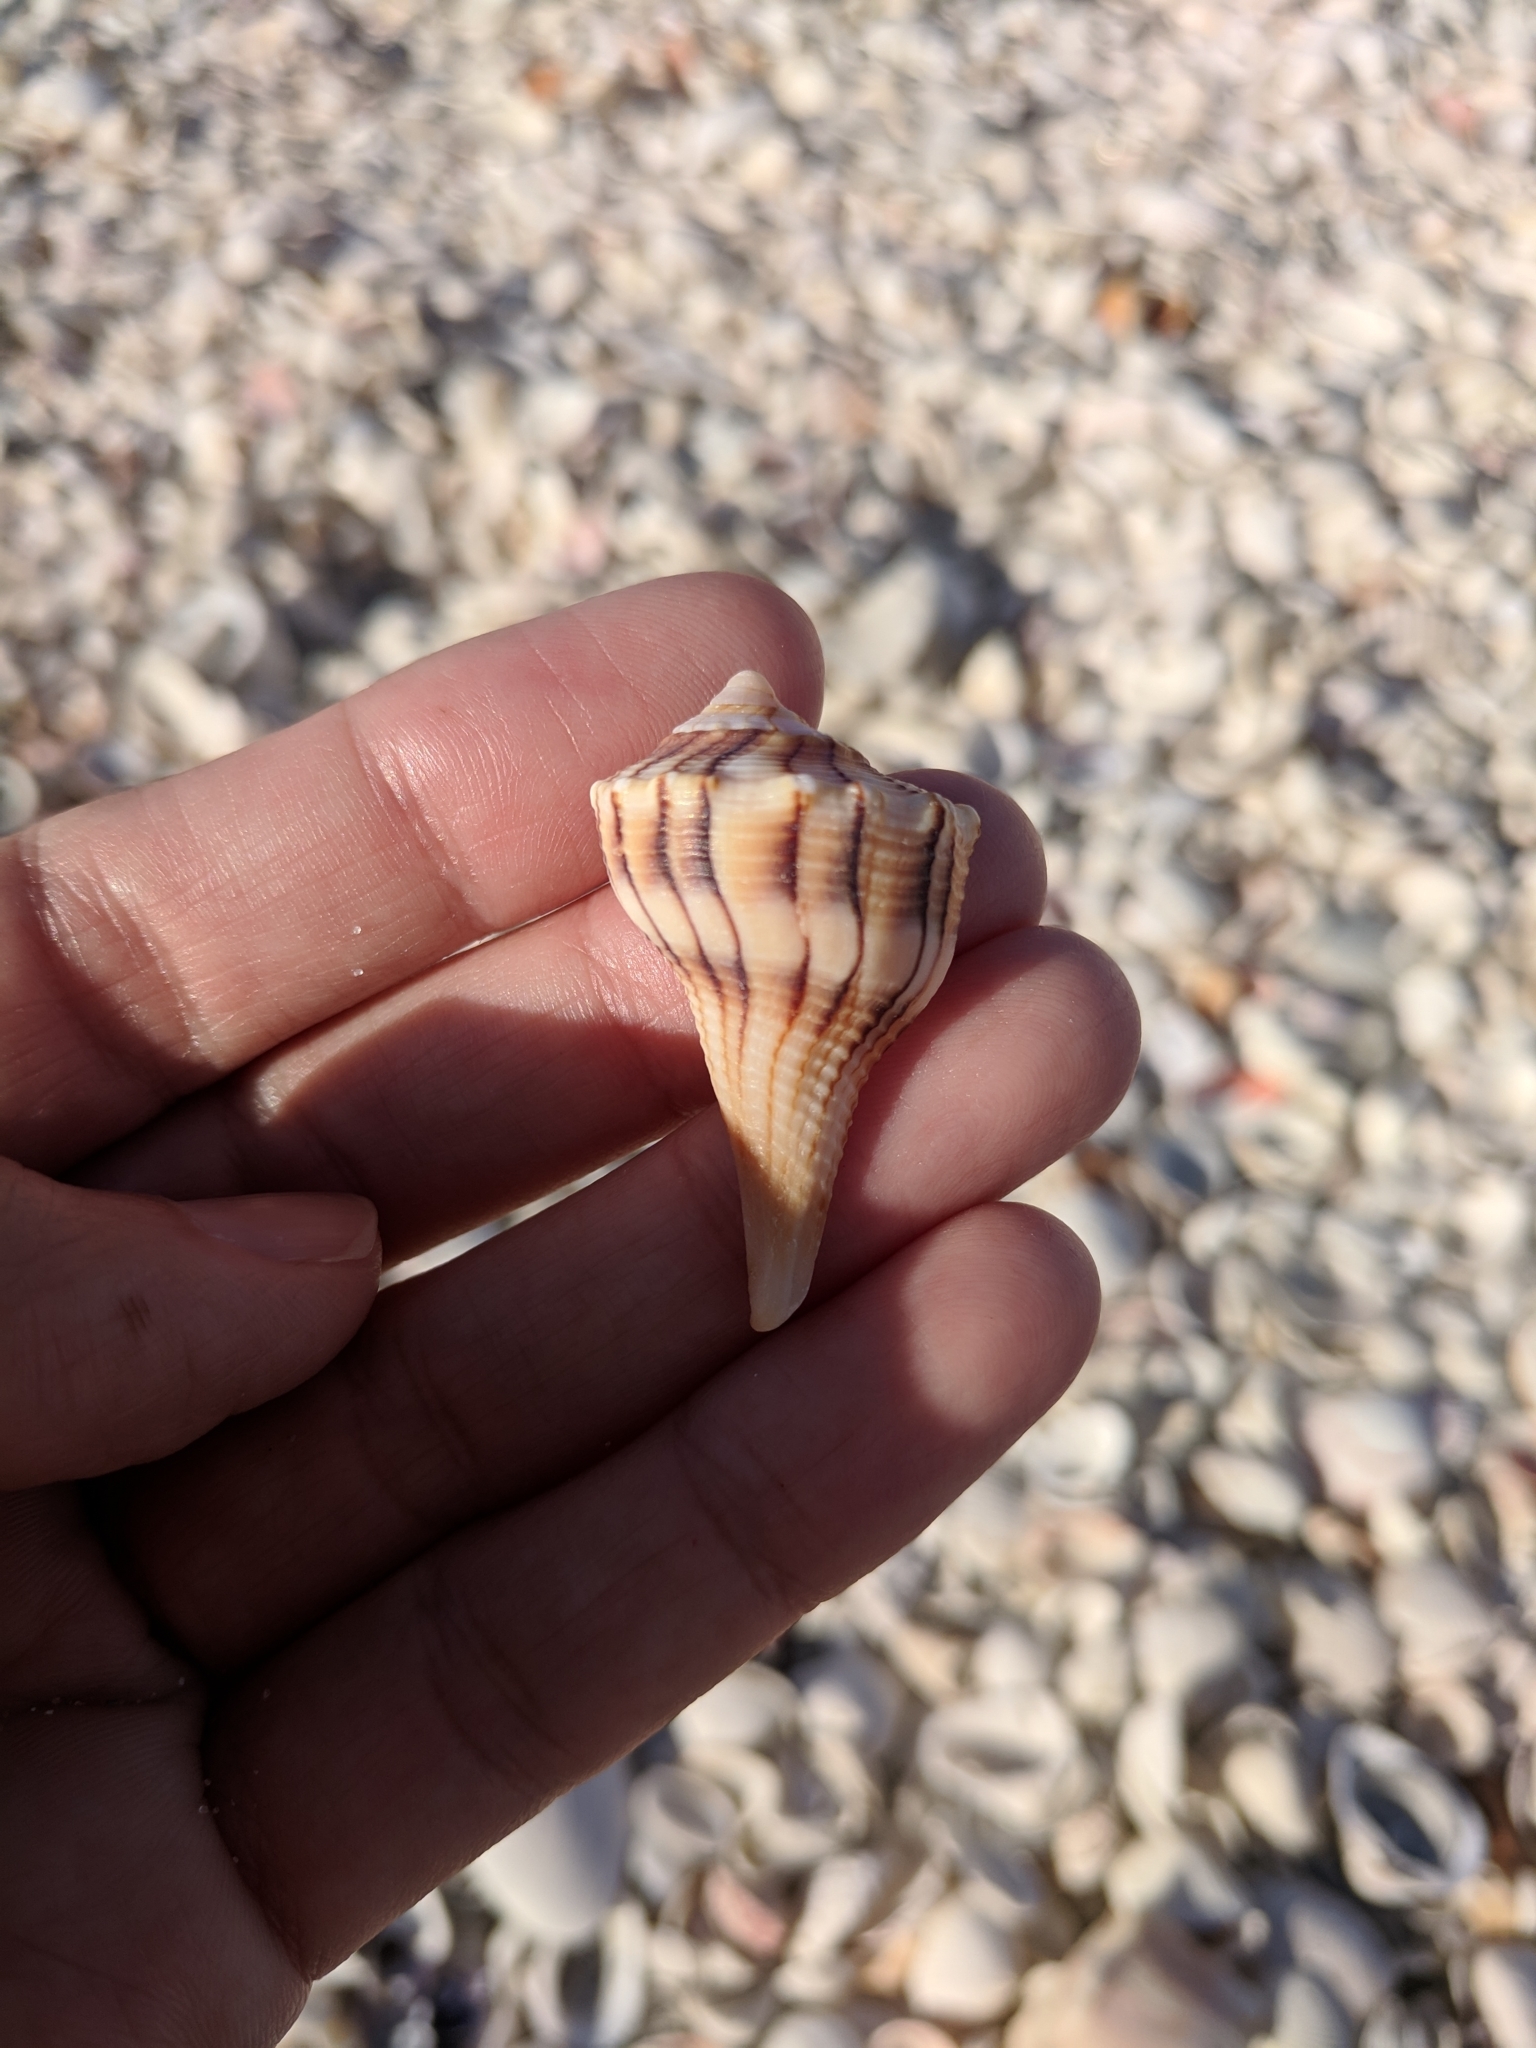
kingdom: Animalia
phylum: Mollusca
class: Gastropoda
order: Neogastropoda
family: Busyconidae
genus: Sinistrofulgur
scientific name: Sinistrofulgur sinistrum
